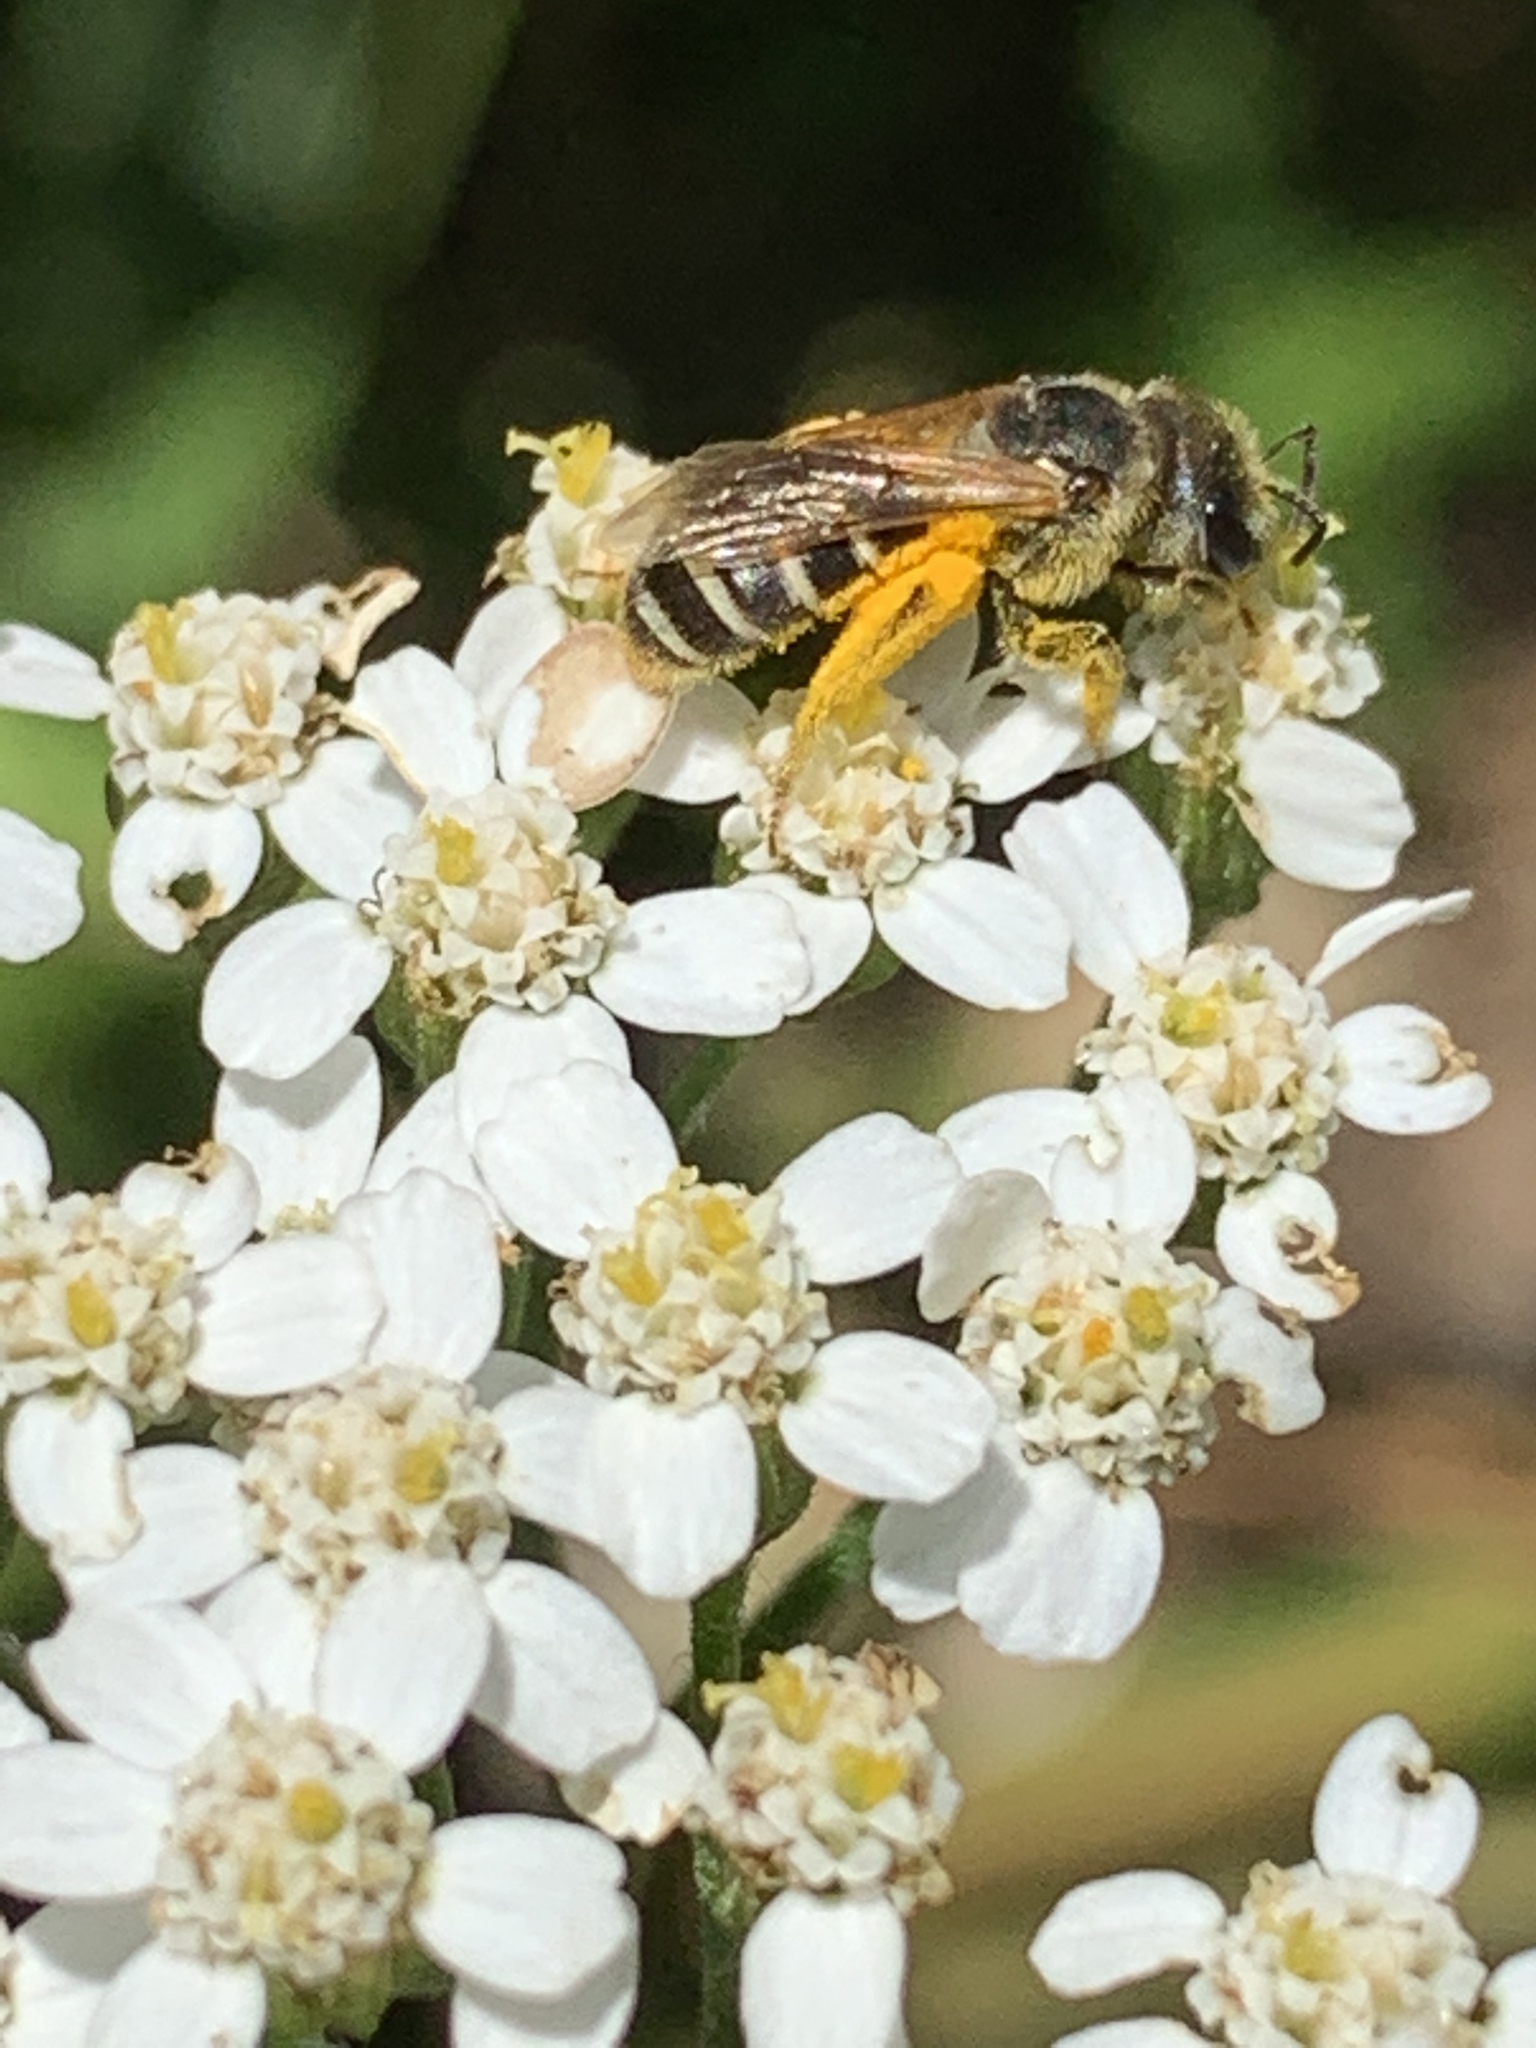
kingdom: Animalia
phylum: Arthropoda
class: Insecta
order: Hymenoptera
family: Halictidae
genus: Halictus
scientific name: Halictus ligatus
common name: Ligated furrow bee
